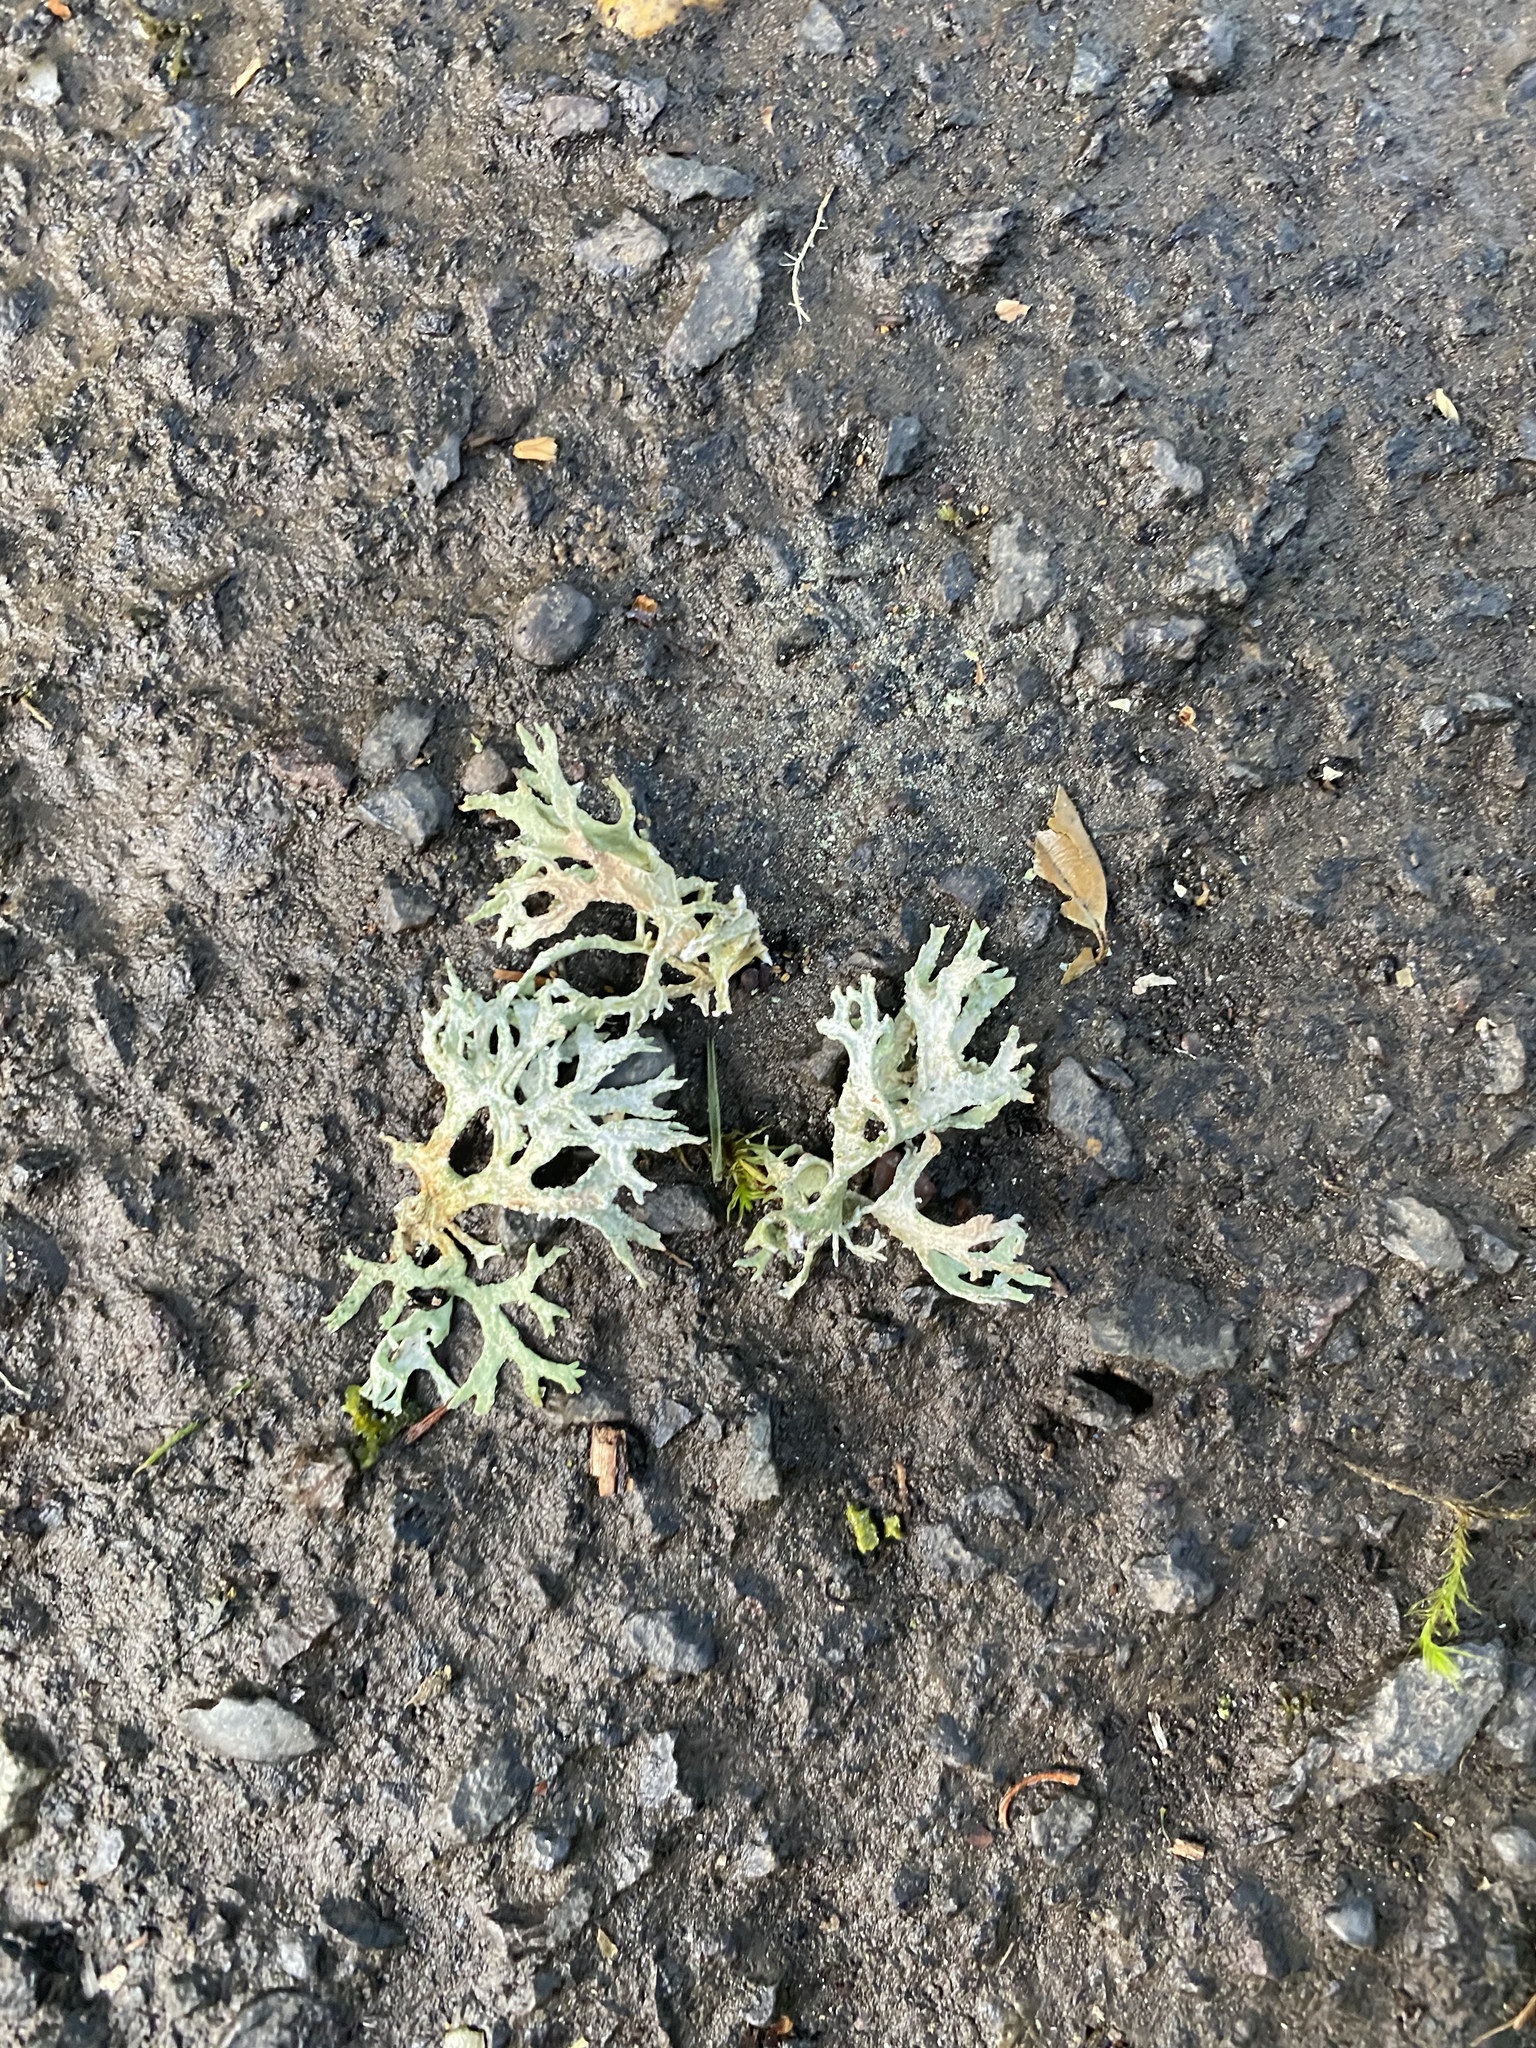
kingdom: Fungi
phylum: Ascomycota
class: Lecanoromycetes
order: Lecanorales
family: Parmeliaceae
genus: Evernia
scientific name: Evernia prunastri
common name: Oak moss
